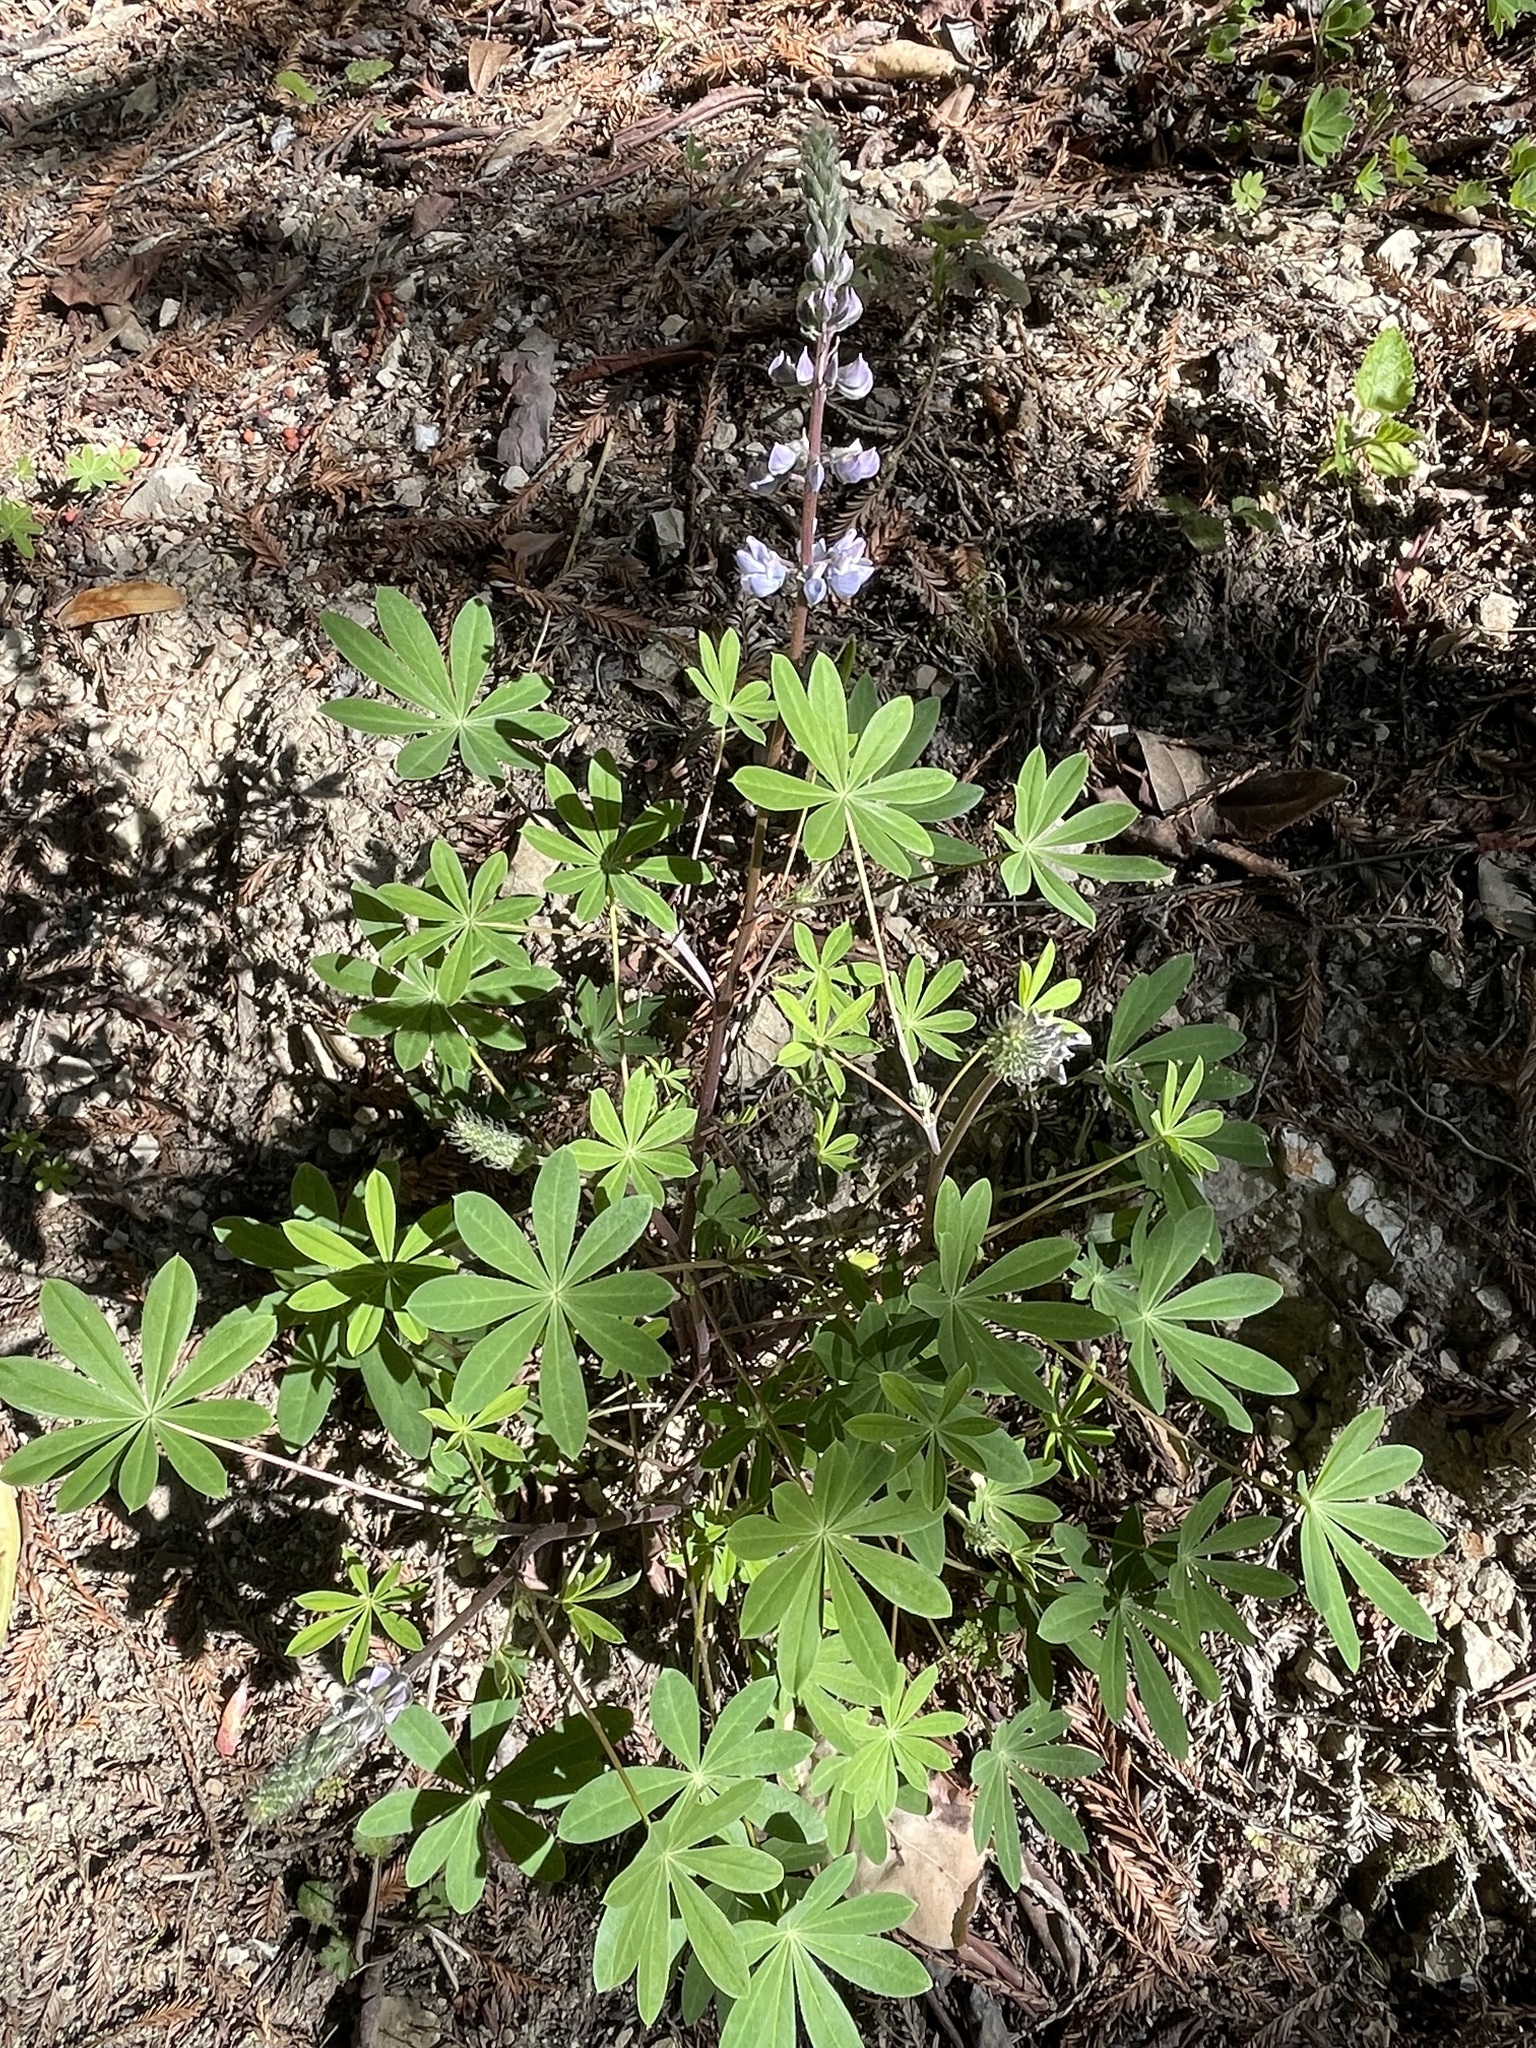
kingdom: Plantae
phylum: Tracheophyta
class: Magnoliopsida
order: Fabales
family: Fabaceae
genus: Lupinus
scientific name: Lupinus latifolius
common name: Broad-leaved lupine
